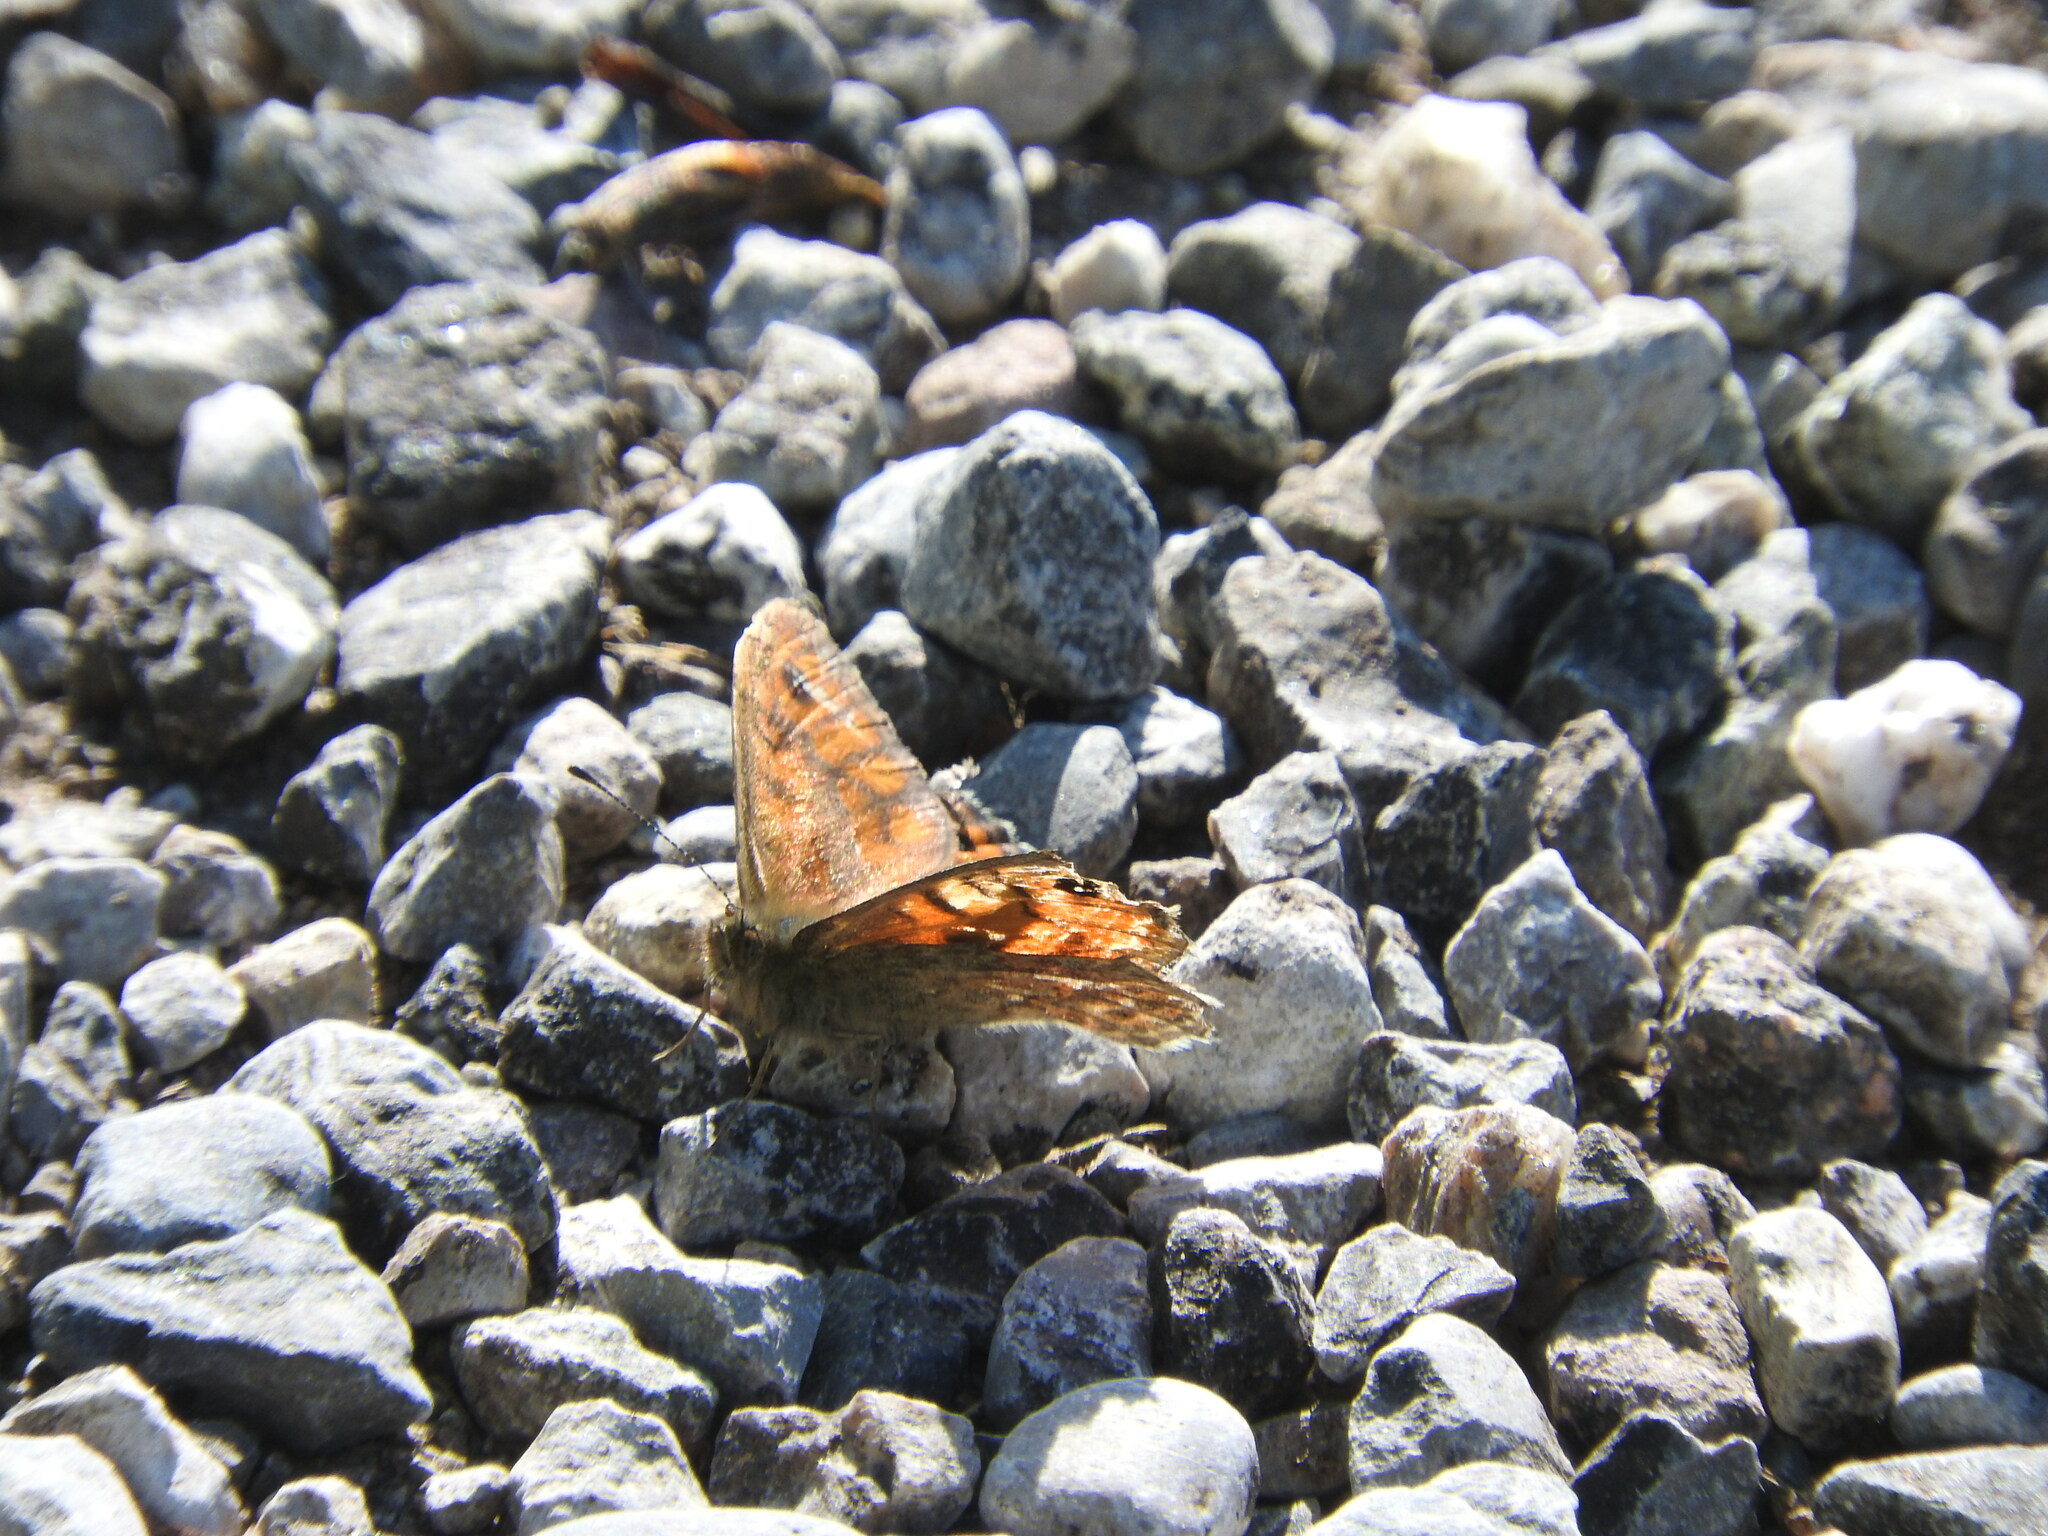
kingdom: Animalia
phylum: Arthropoda
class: Insecta
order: Lepidoptera
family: Nymphalidae
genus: Pararge
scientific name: Pararge Lasiommata megera
